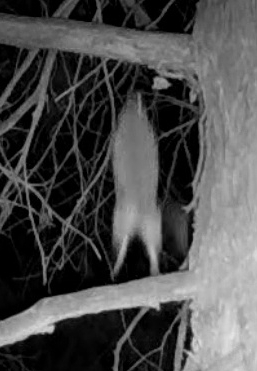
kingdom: Animalia
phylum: Chordata
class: Mammalia
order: Rodentia
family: Cricetidae
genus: Neotoma
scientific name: Neotoma cinerea
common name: Bushy-tailed woodrat
